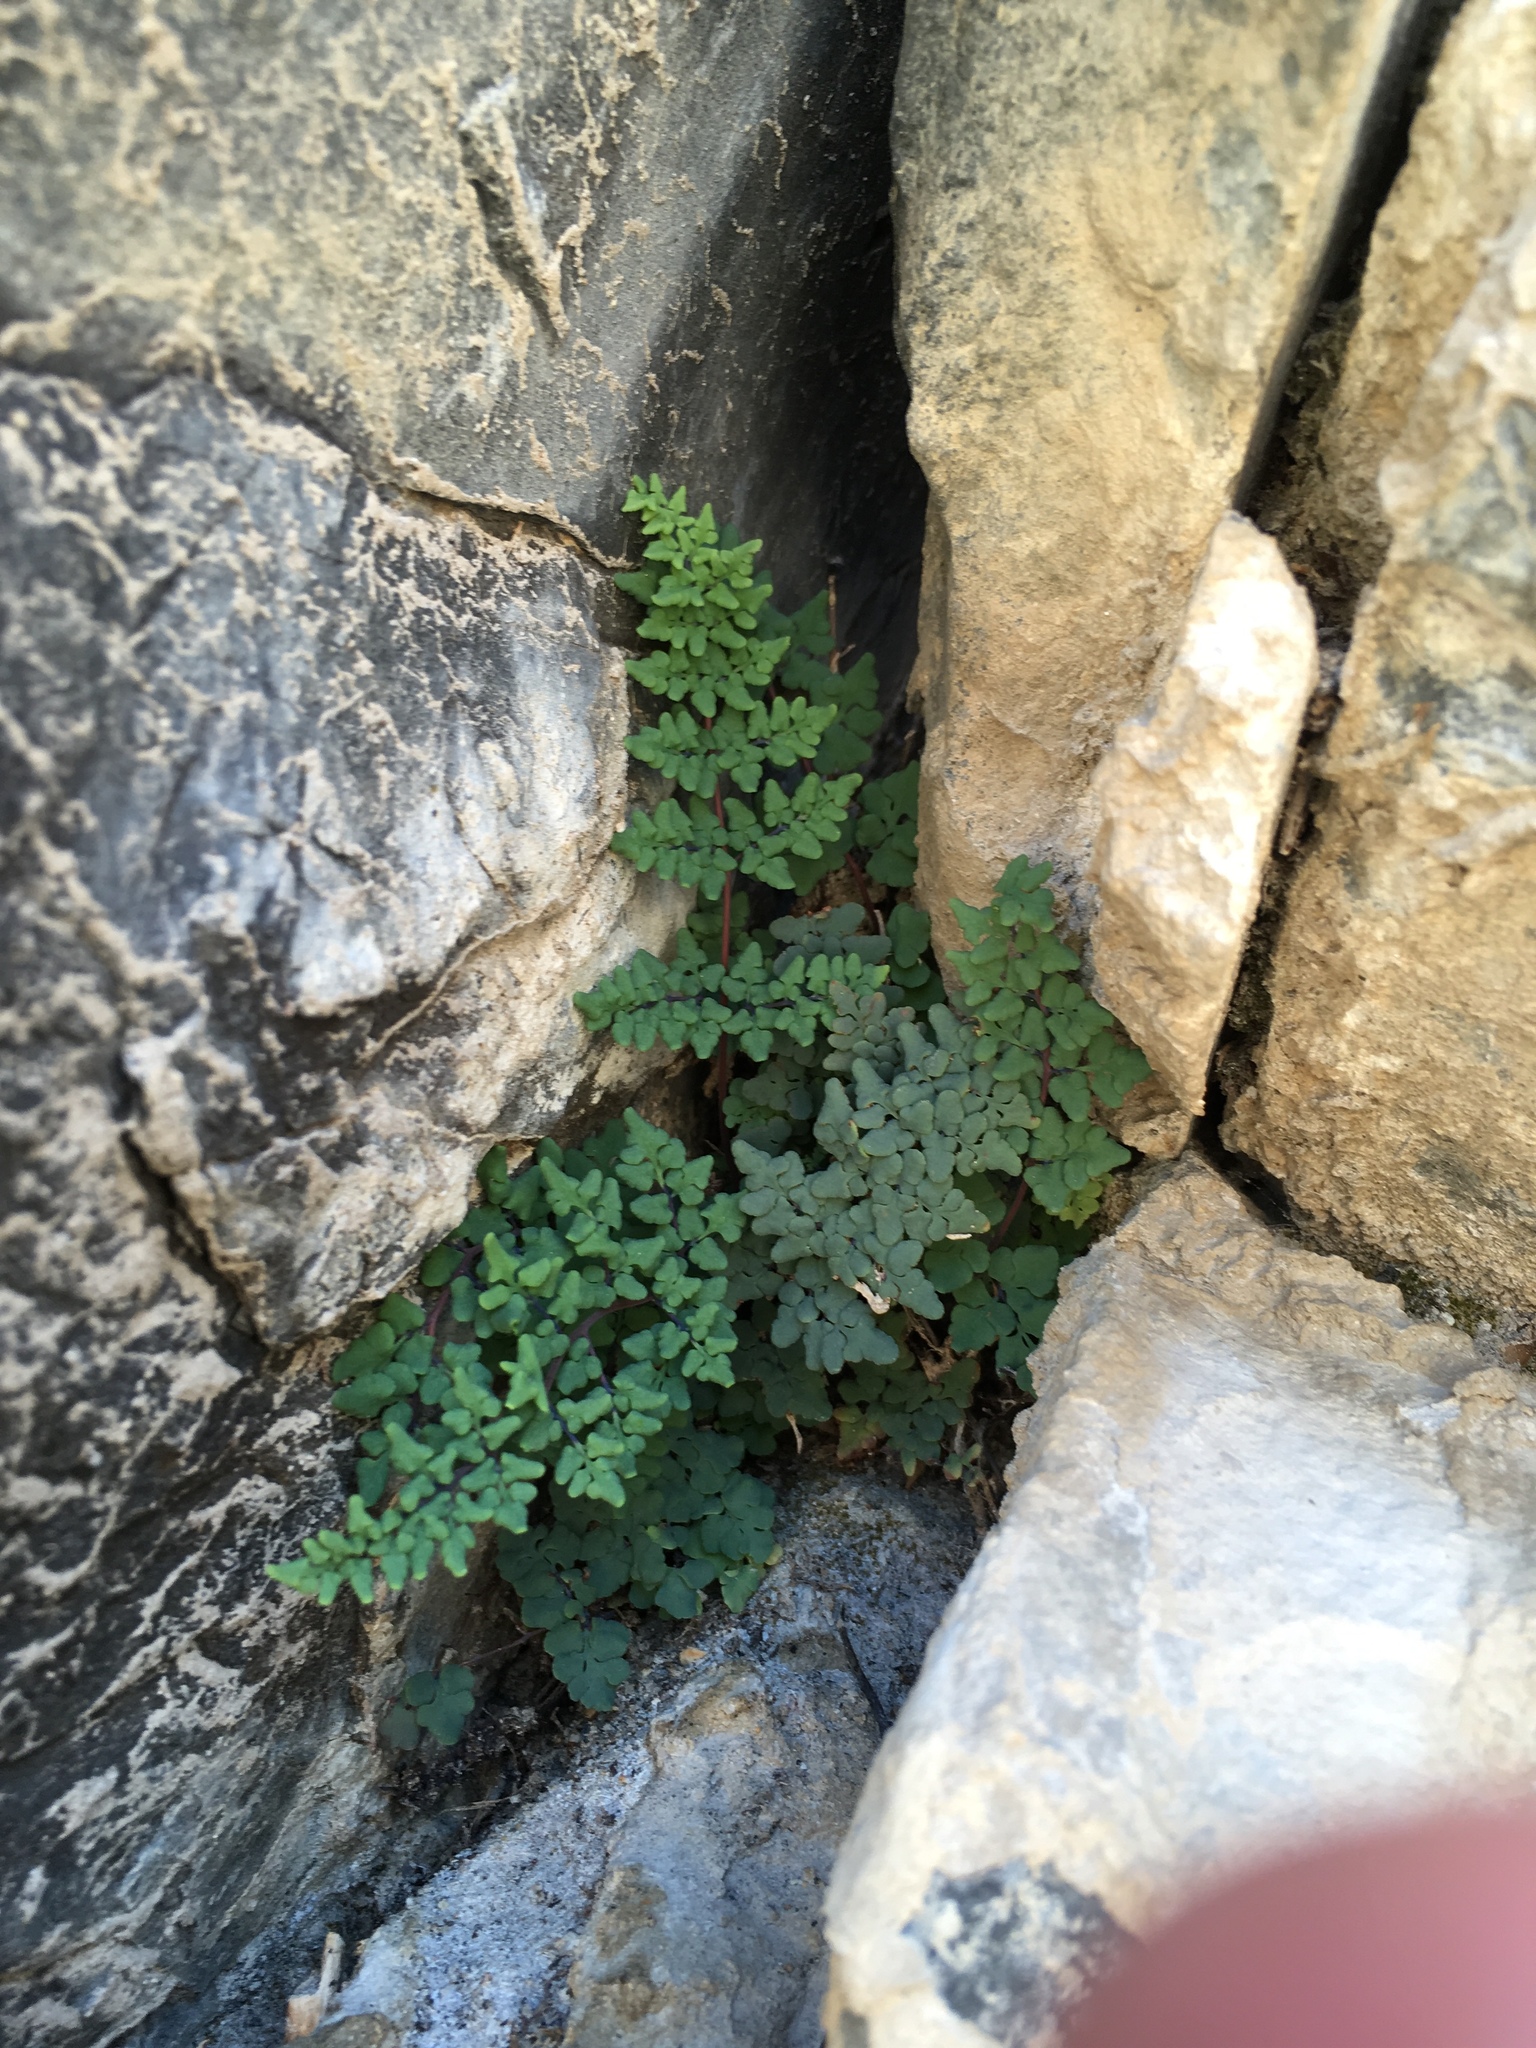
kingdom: Plantae
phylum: Tracheophyta
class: Polypodiopsida
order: Polypodiales
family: Pteridaceae
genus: Argyrochosma
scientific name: Argyrochosma jonesii
